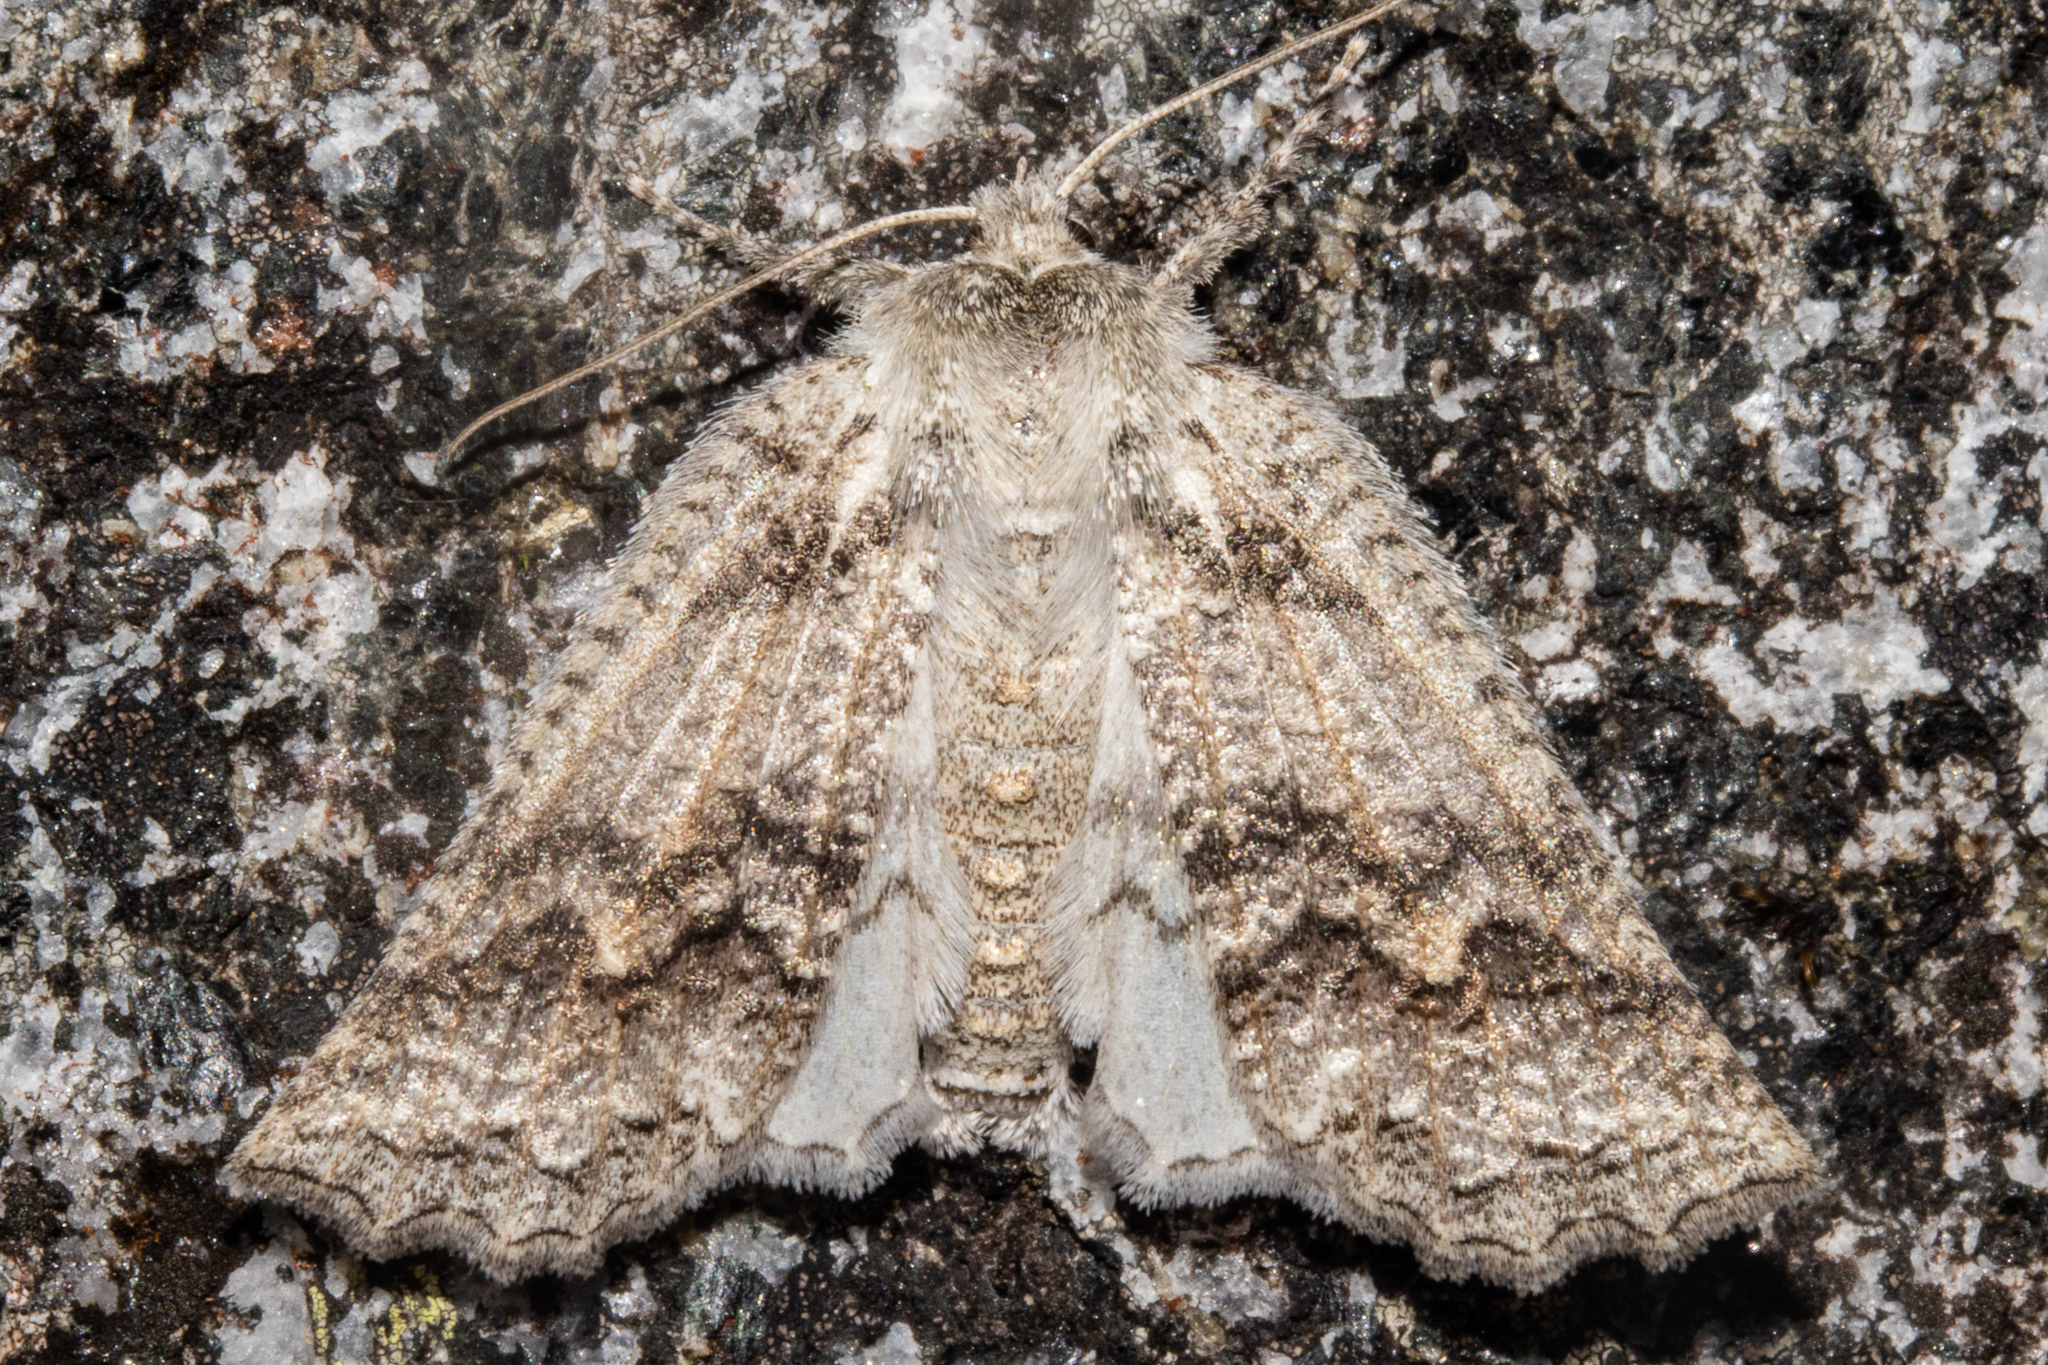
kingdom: Animalia
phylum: Arthropoda
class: Insecta
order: Lepidoptera
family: Geometridae
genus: Declana
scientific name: Declana niveata
